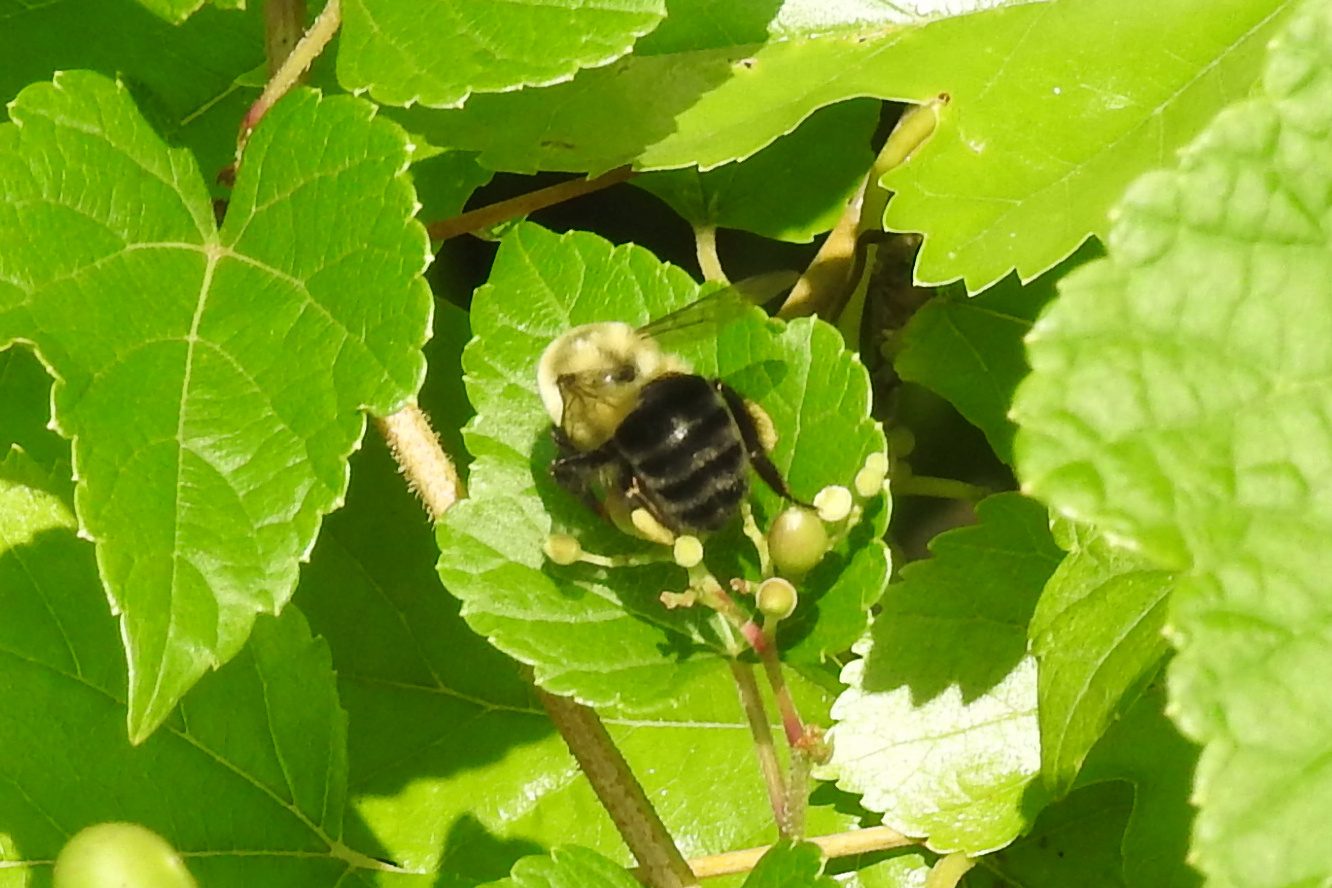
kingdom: Animalia
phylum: Arthropoda
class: Insecta
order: Hymenoptera
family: Apidae
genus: Bombus
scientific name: Bombus impatiens
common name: Common eastern bumble bee
